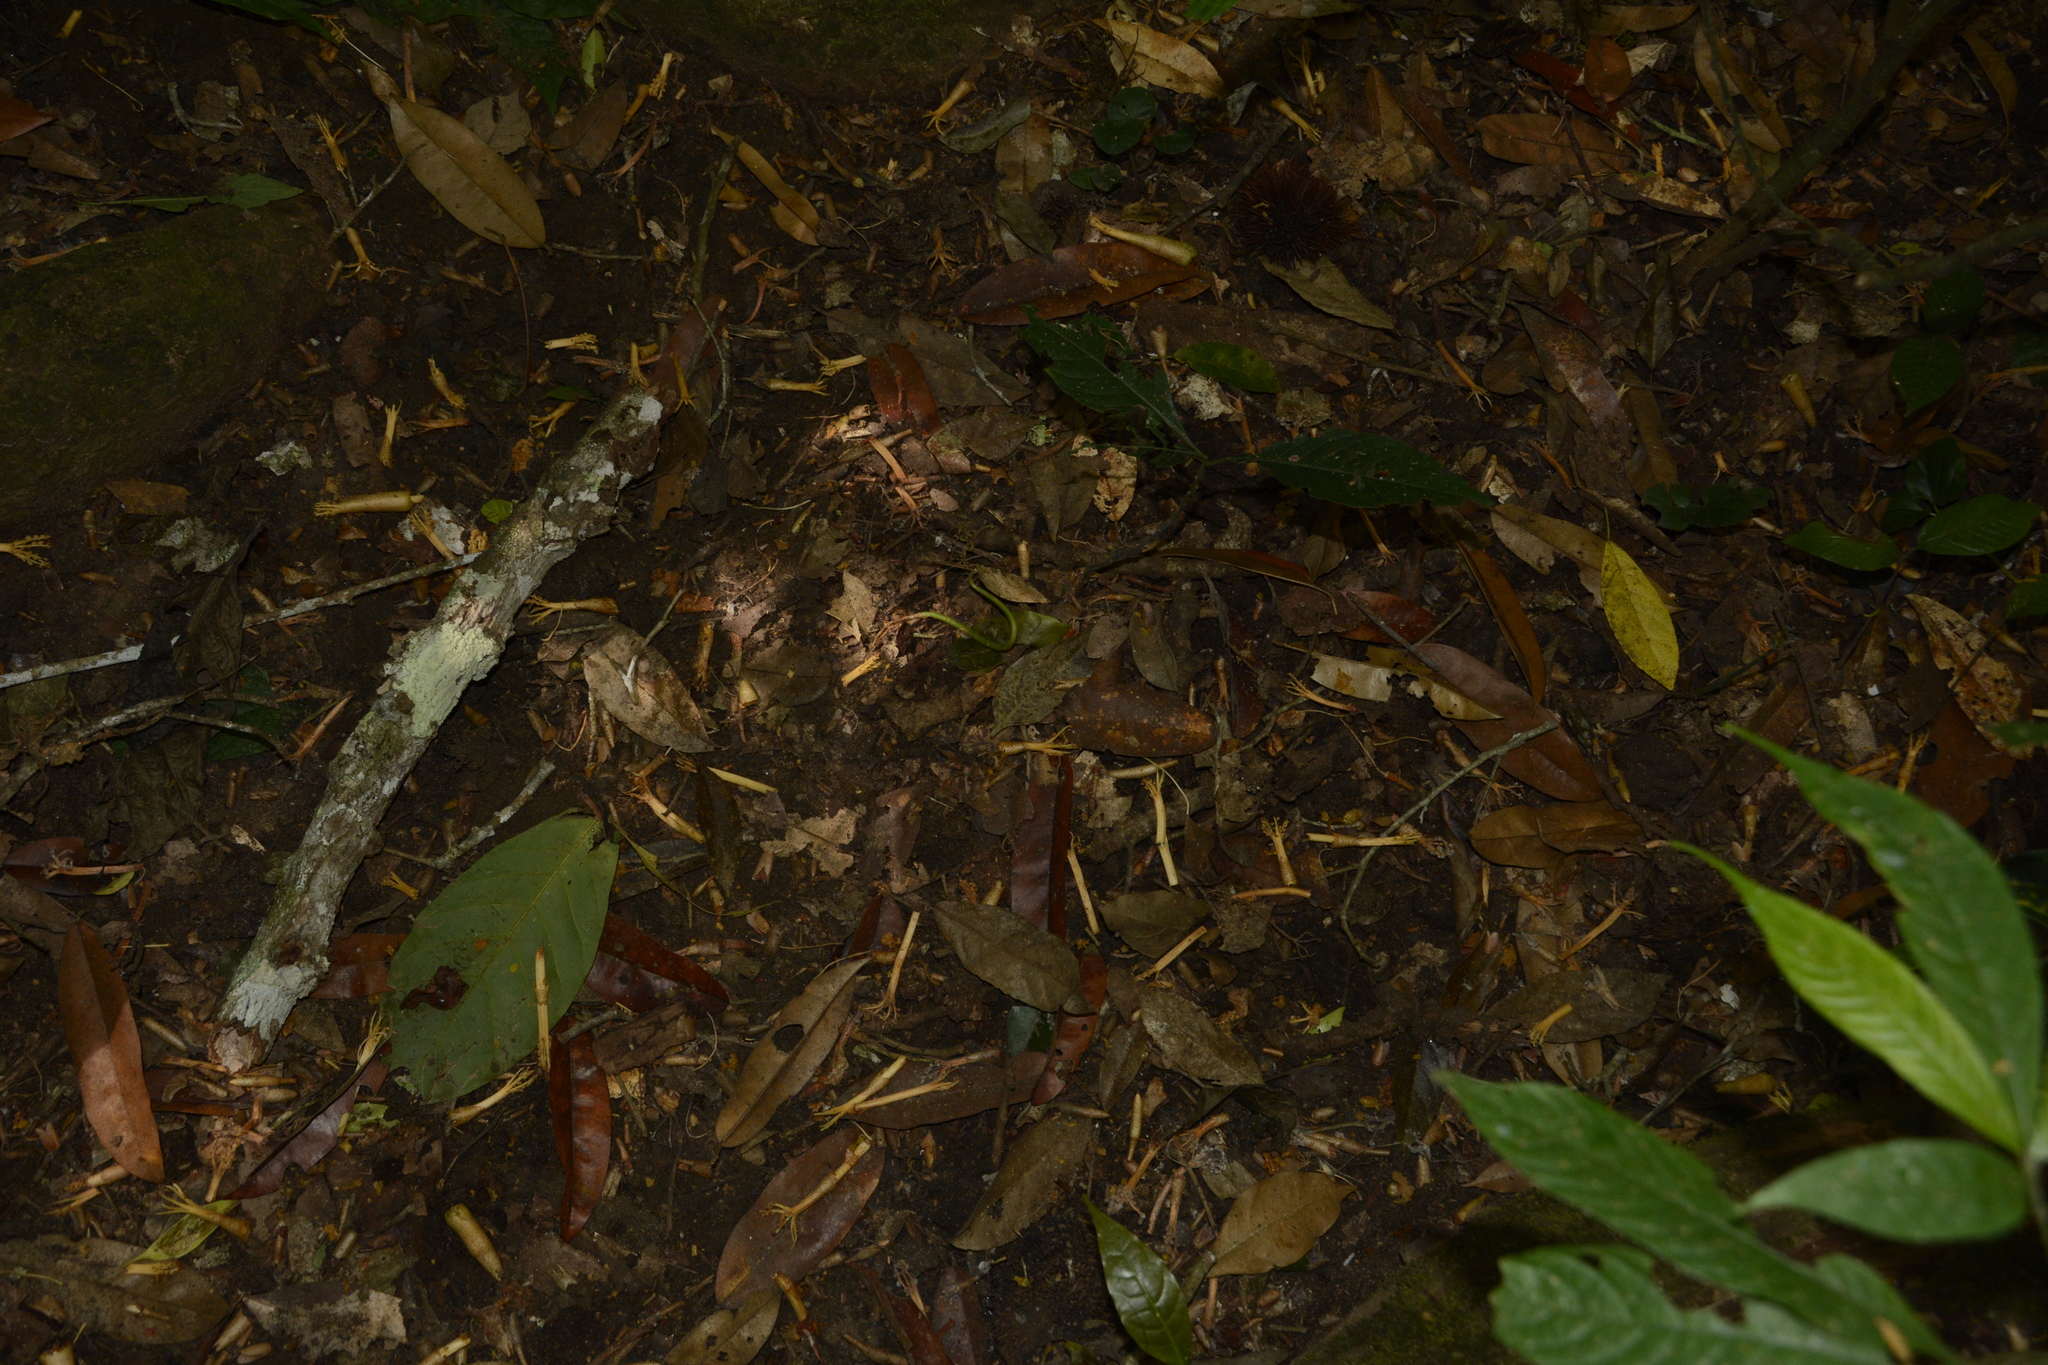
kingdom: Plantae
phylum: Tracheophyta
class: Magnoliopsida
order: Malvales
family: Malvaceae
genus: Cullenia
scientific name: Cullenia exarillata
